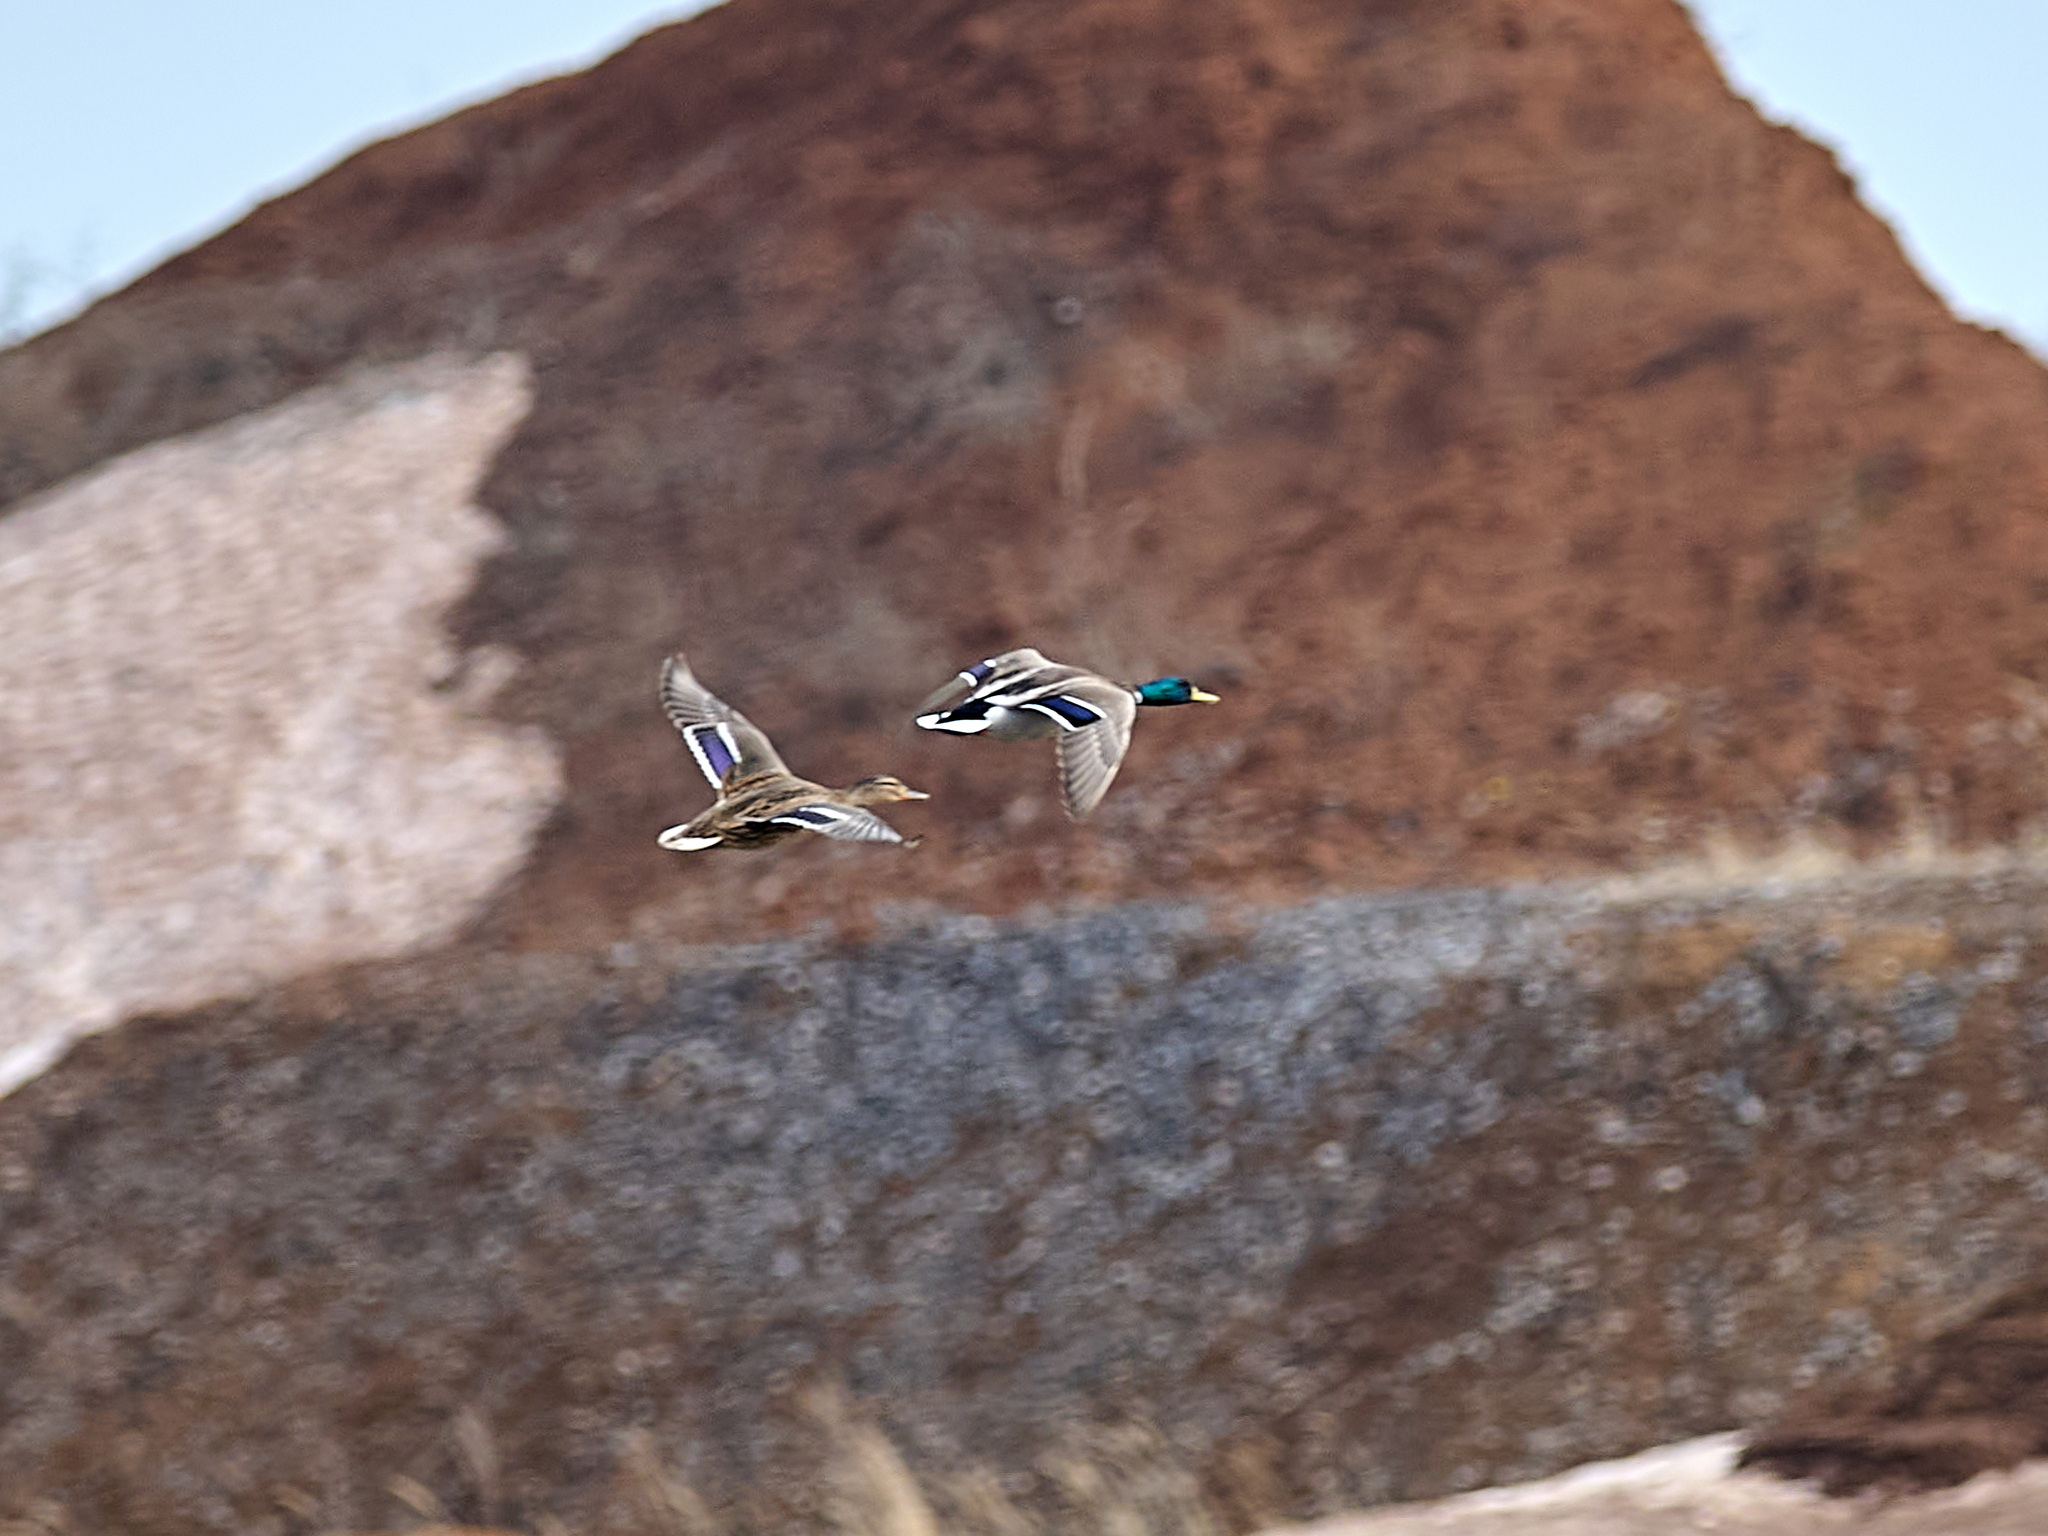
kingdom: Animalia
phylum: Chordata
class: Aves
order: Anseriformes
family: Anatidae
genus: Anas
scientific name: Anas platyrhynchos
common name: Mallard
